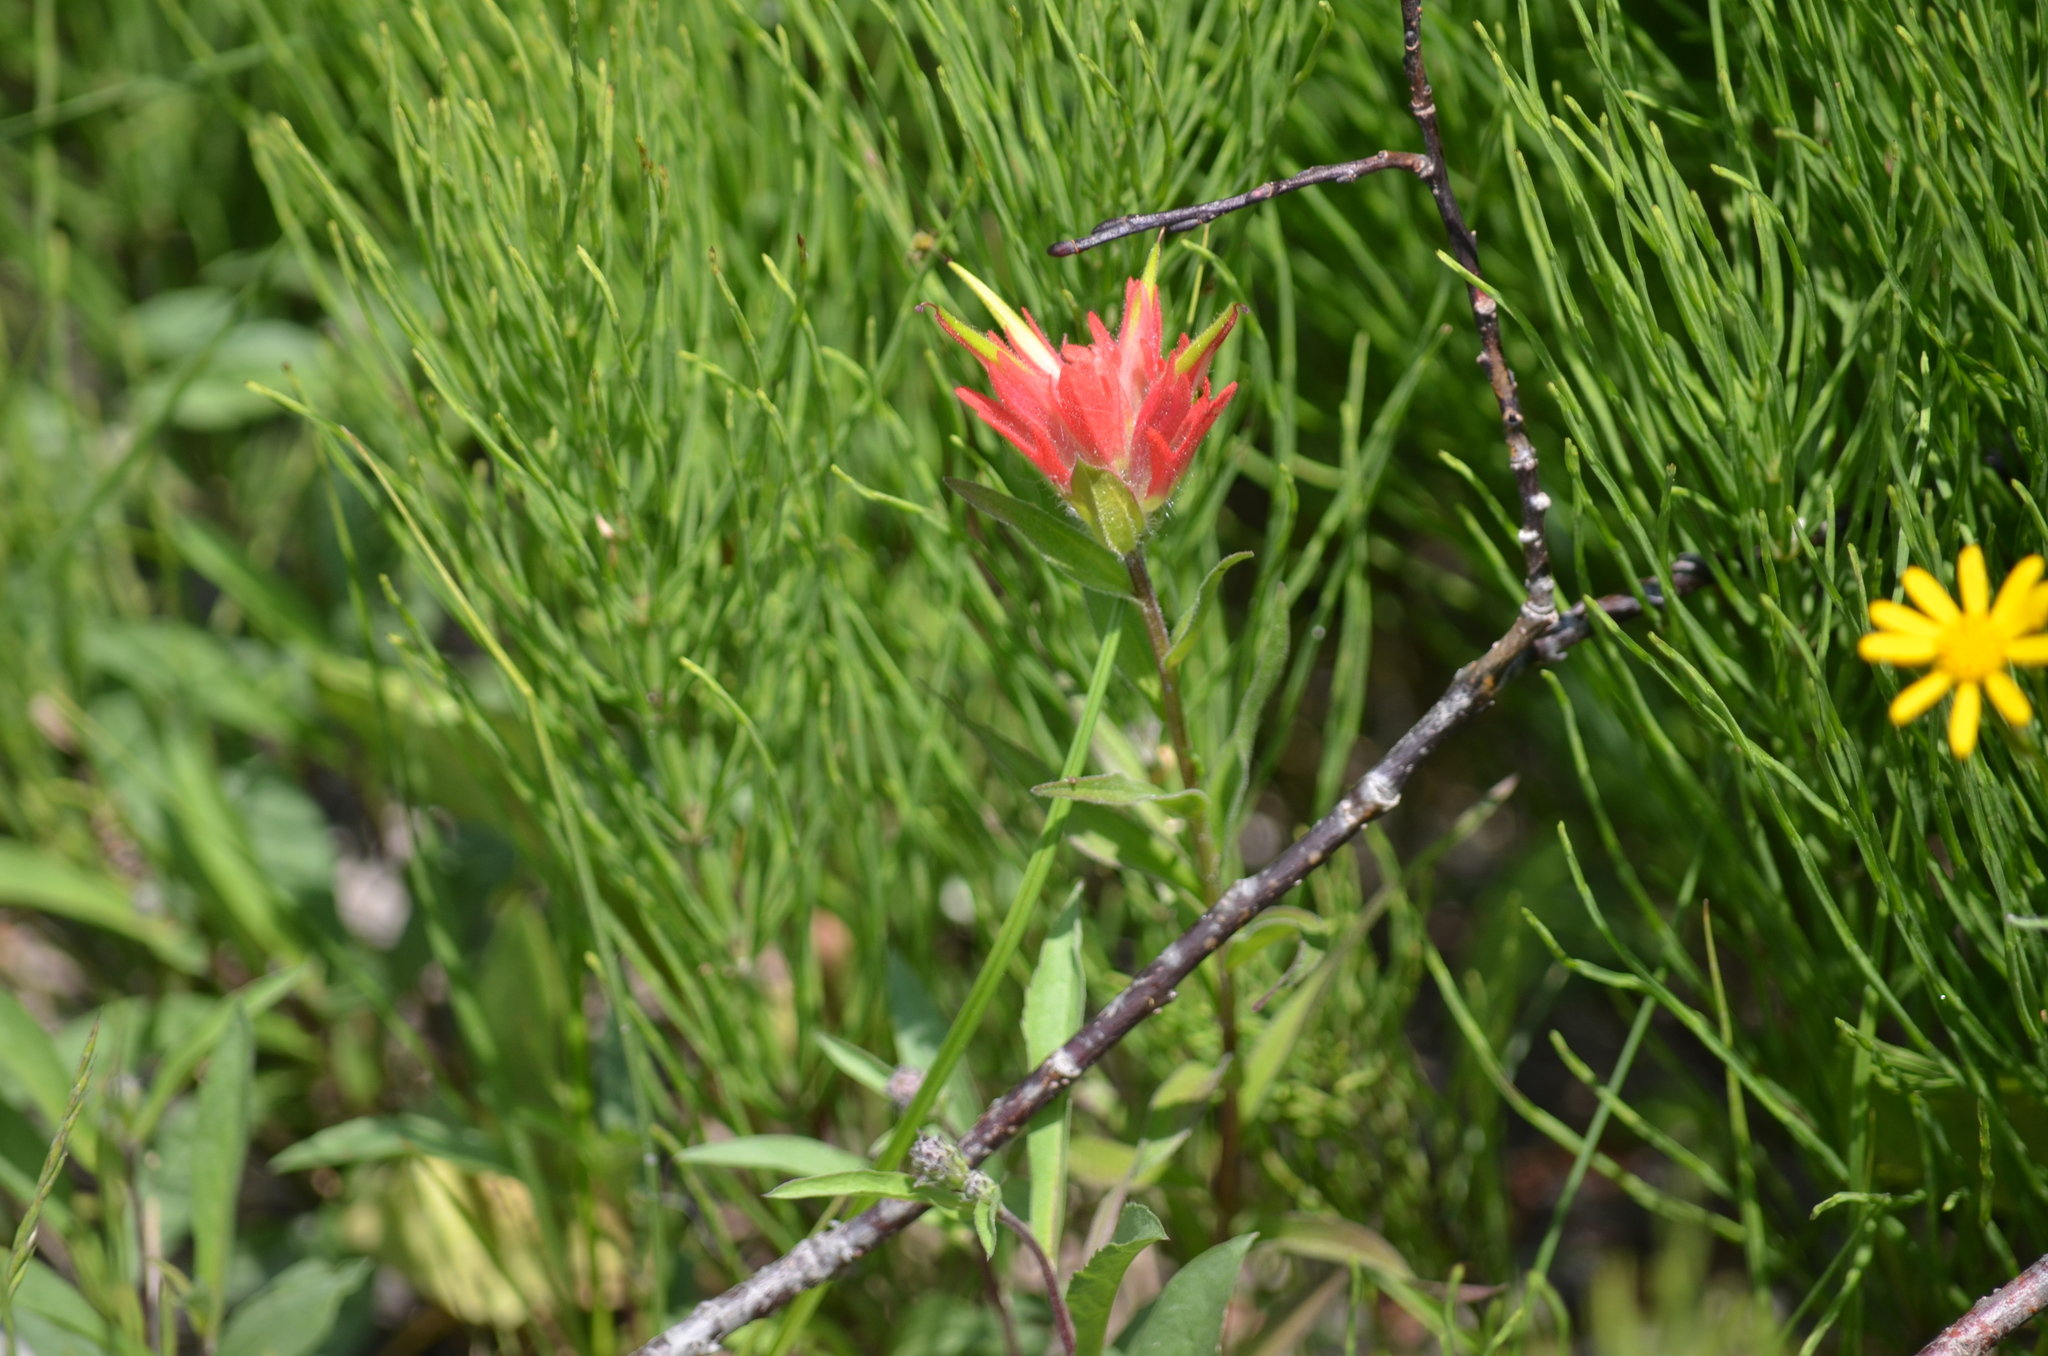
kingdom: Plantae
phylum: Tracheophyta
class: Magnoliopsida
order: Lamiales
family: Orobanchaceae
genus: Castilleja
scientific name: Castilleja miniata
